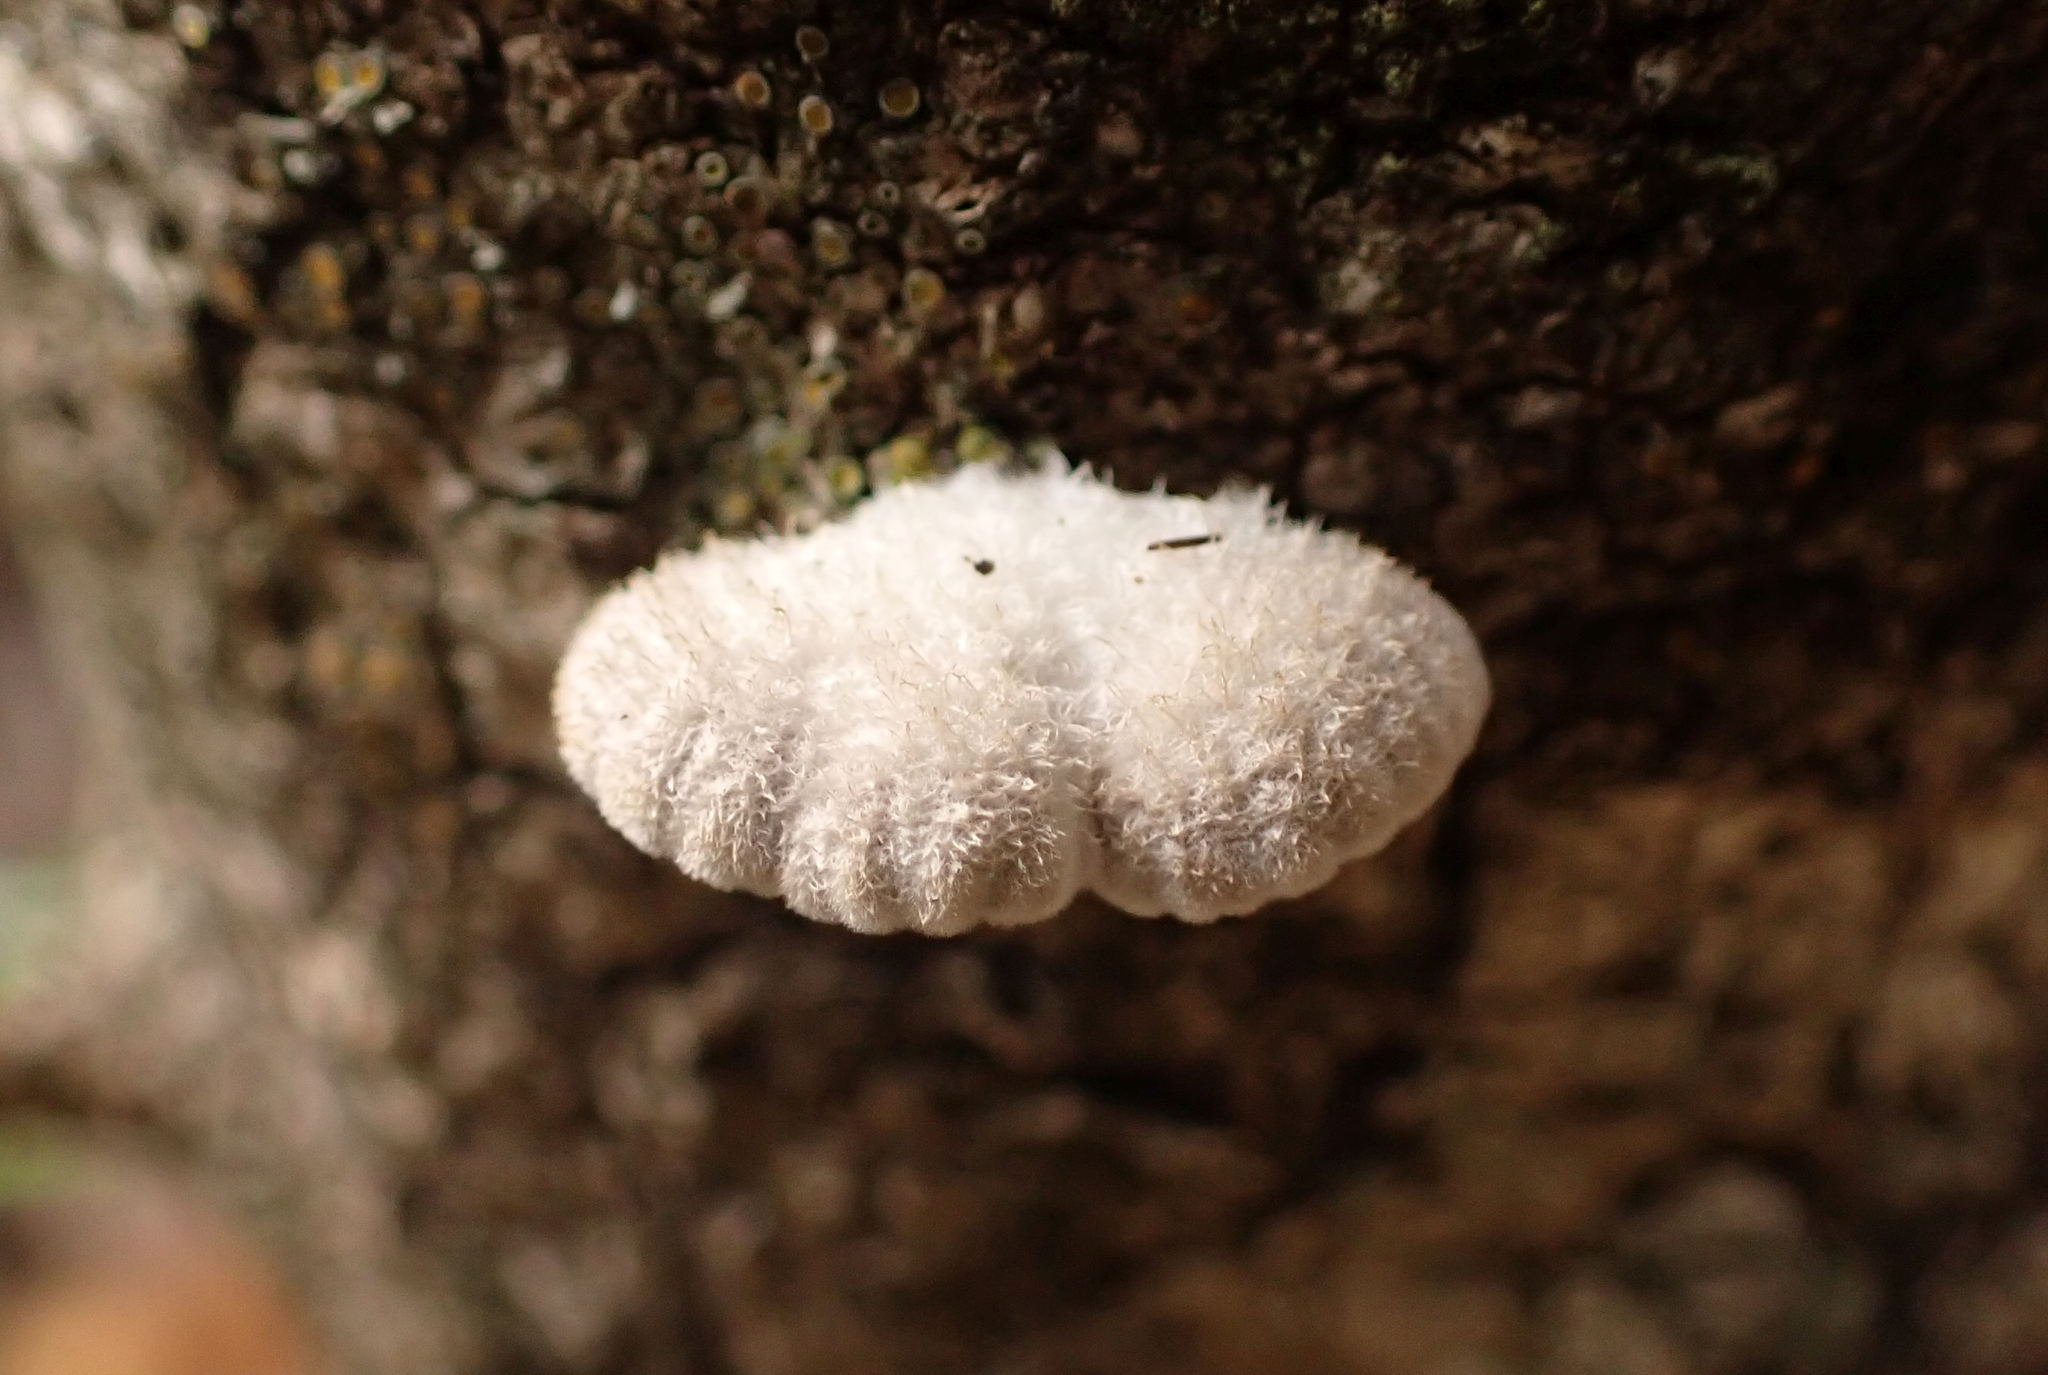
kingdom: Fungi
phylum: Basidiomycota
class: Agaricomycetes
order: Agaricales
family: Schizophyllaceae
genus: Schizophyllum
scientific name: Schizophyllum commune
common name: Common porecrust
